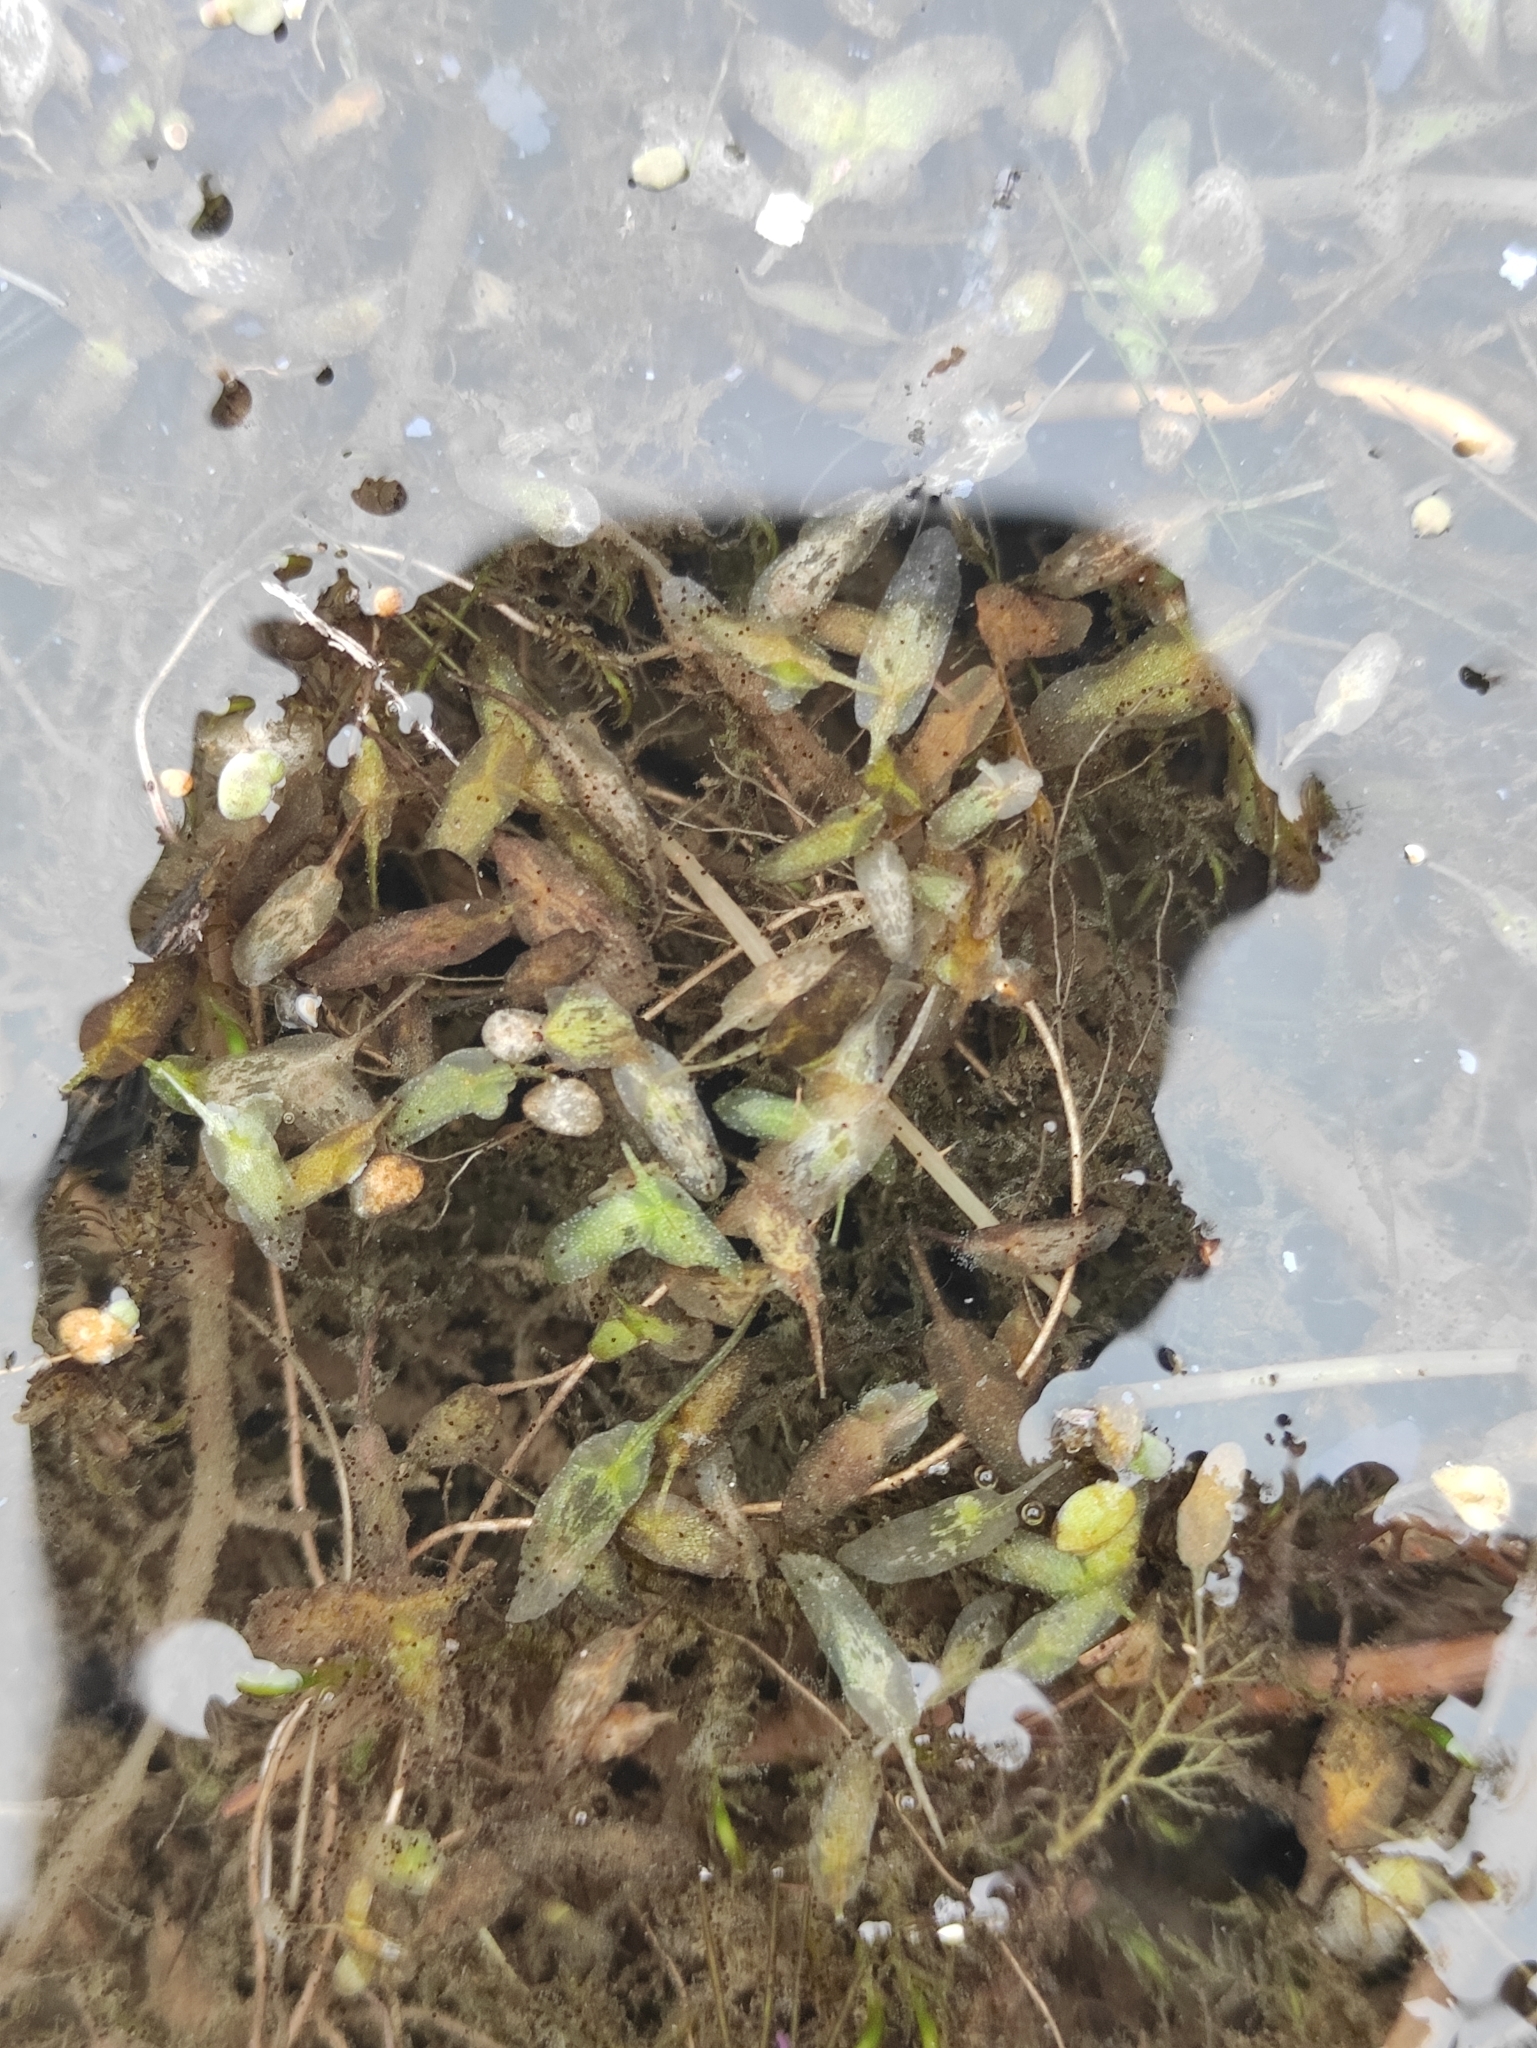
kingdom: Plantae
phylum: Tracheophyta
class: Liliopsida
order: Alismatales
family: Araceae
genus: Lemna
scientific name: Lemna trisulca
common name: Ivy-leaved duckweed
